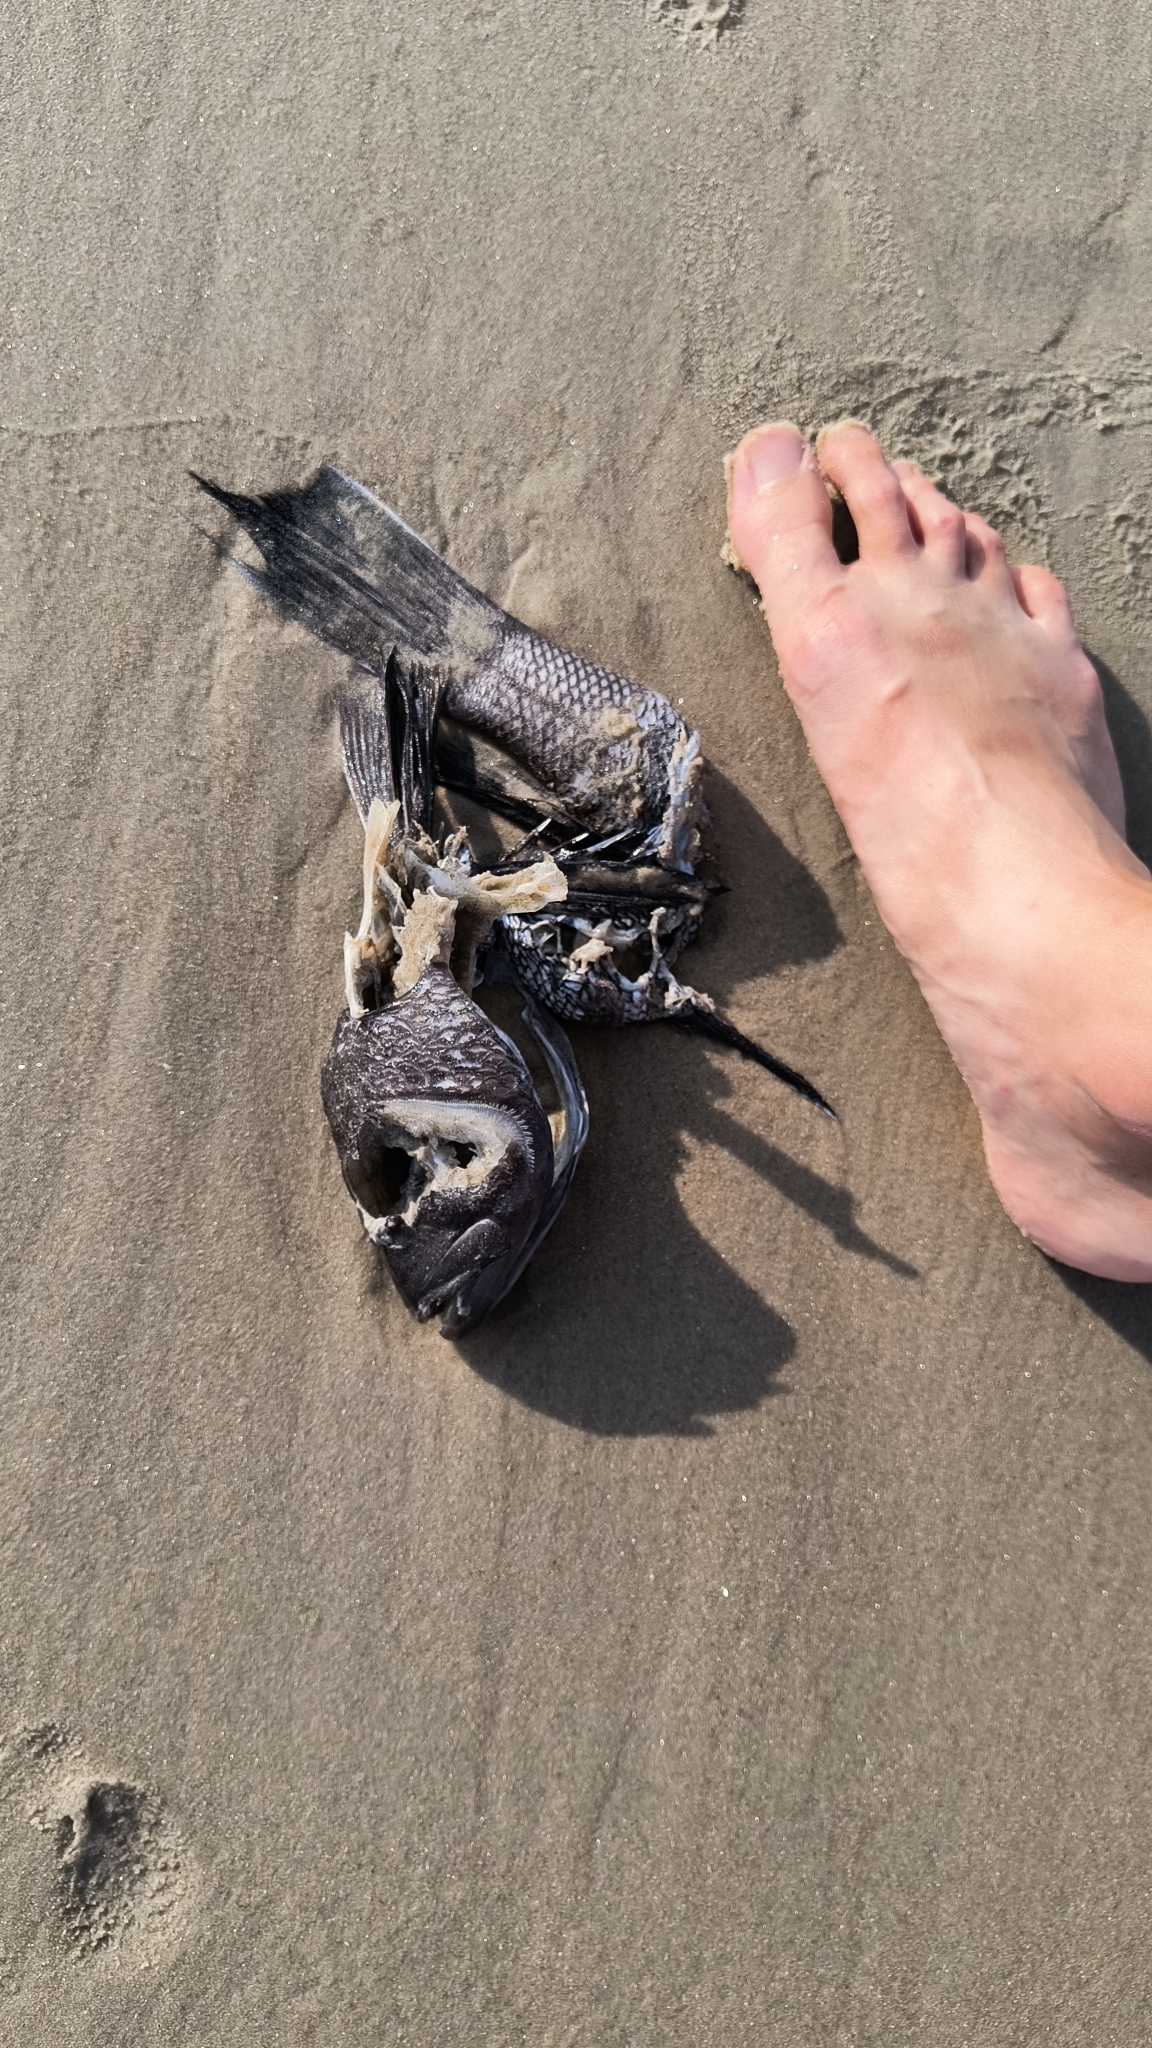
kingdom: Animalia
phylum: Chordata
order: Perciformes
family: Serranidae
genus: Centropristis
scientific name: Centropristis striata
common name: Black sea bass
